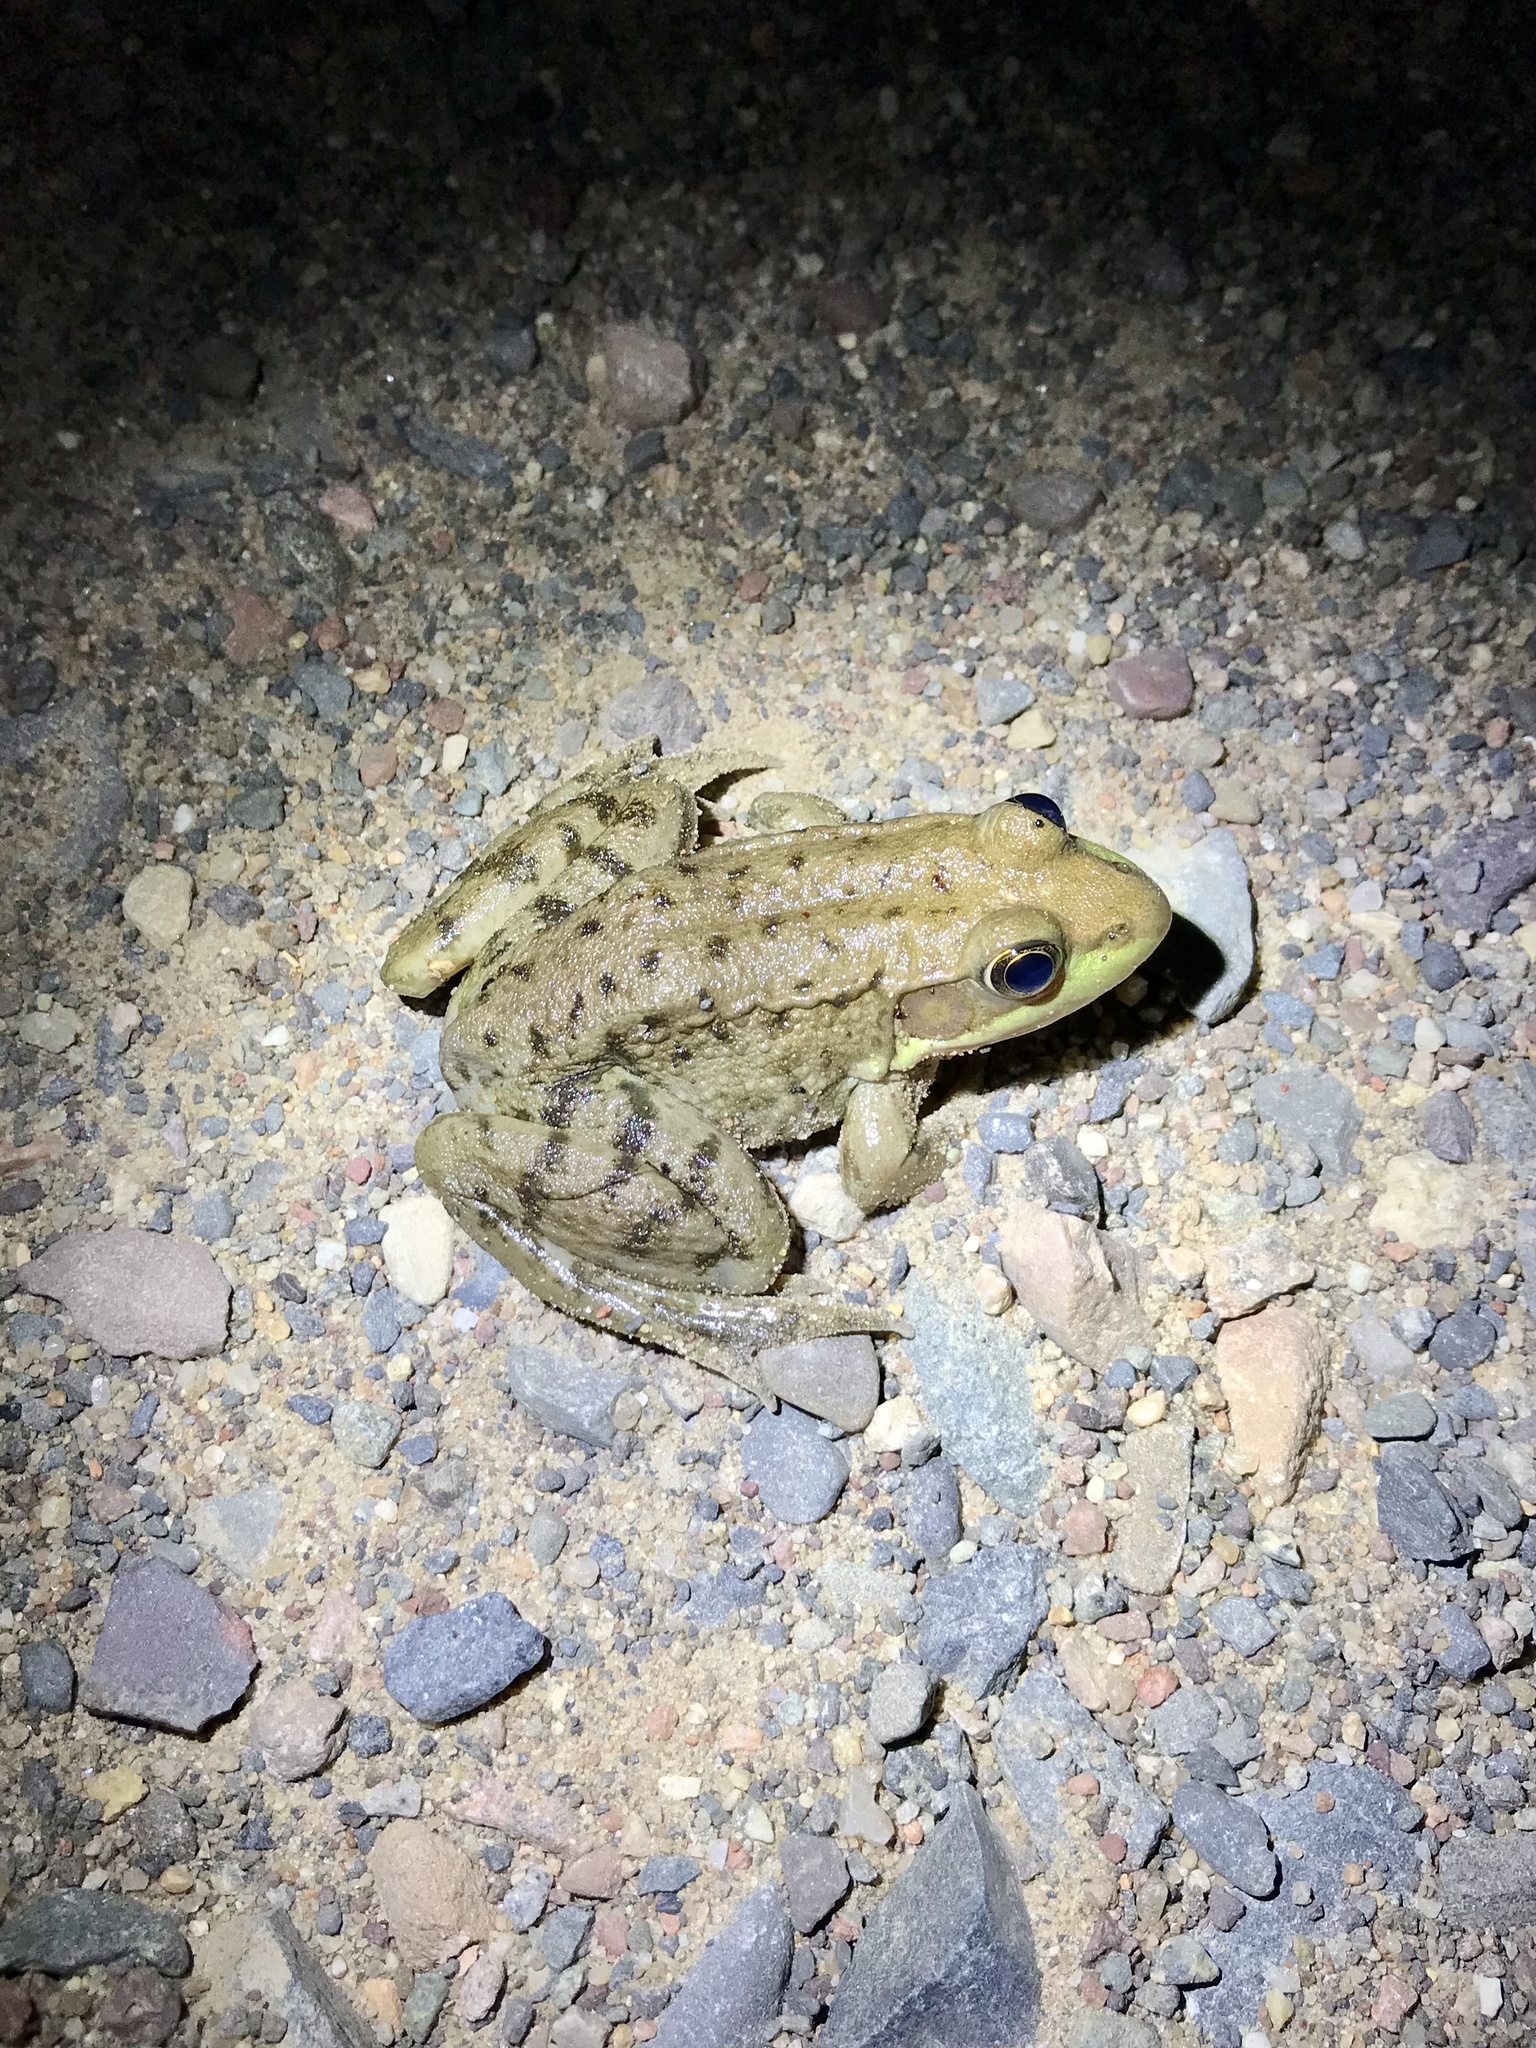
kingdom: Animalia
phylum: Chordata
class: Amphibia
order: Anura
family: Ranidae
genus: Lithobates
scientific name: Lithobates clamitans
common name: Green frog
